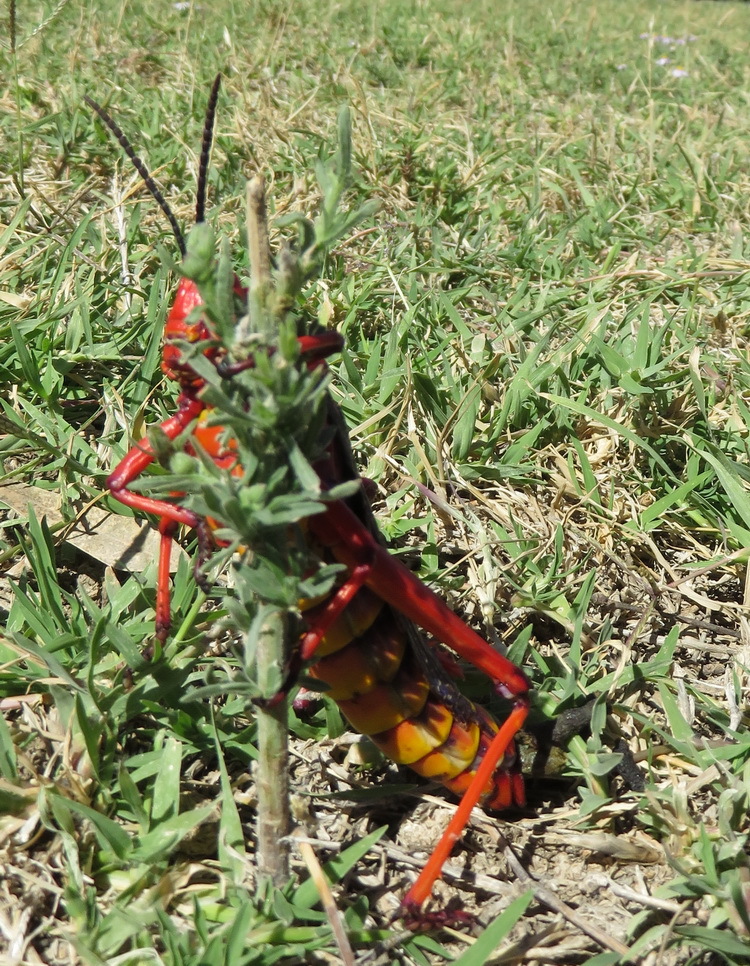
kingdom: Animalia
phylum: Arthropoda
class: Insecta
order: Orthoptera
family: Pyrgomorphidae
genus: Phymateus
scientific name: Phymateus morbillosus
